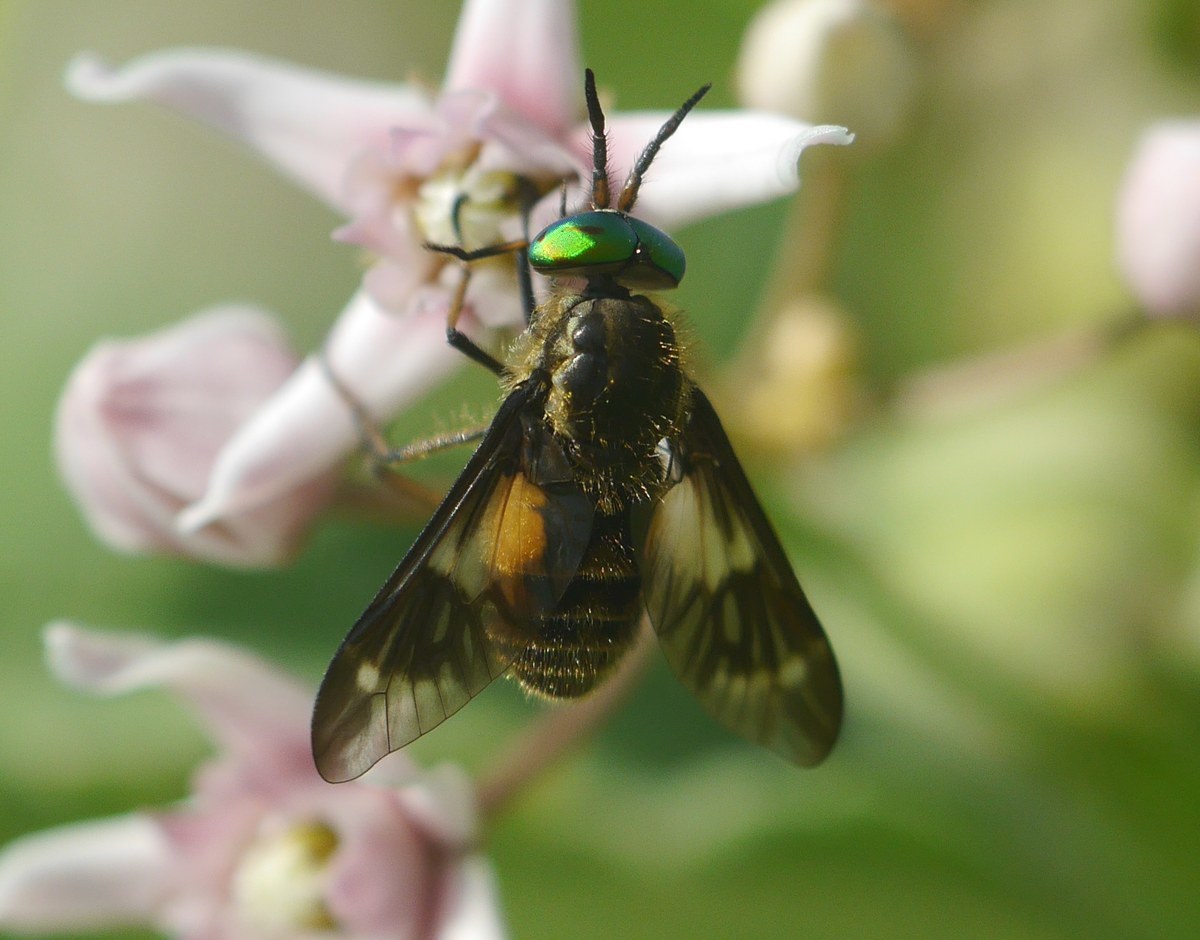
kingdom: Animalia
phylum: Arthropoda
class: Insecta
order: Diptera
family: Tabanidae
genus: Chrysops
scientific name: Chrysops relictus
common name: Twin-lobed deerfly
